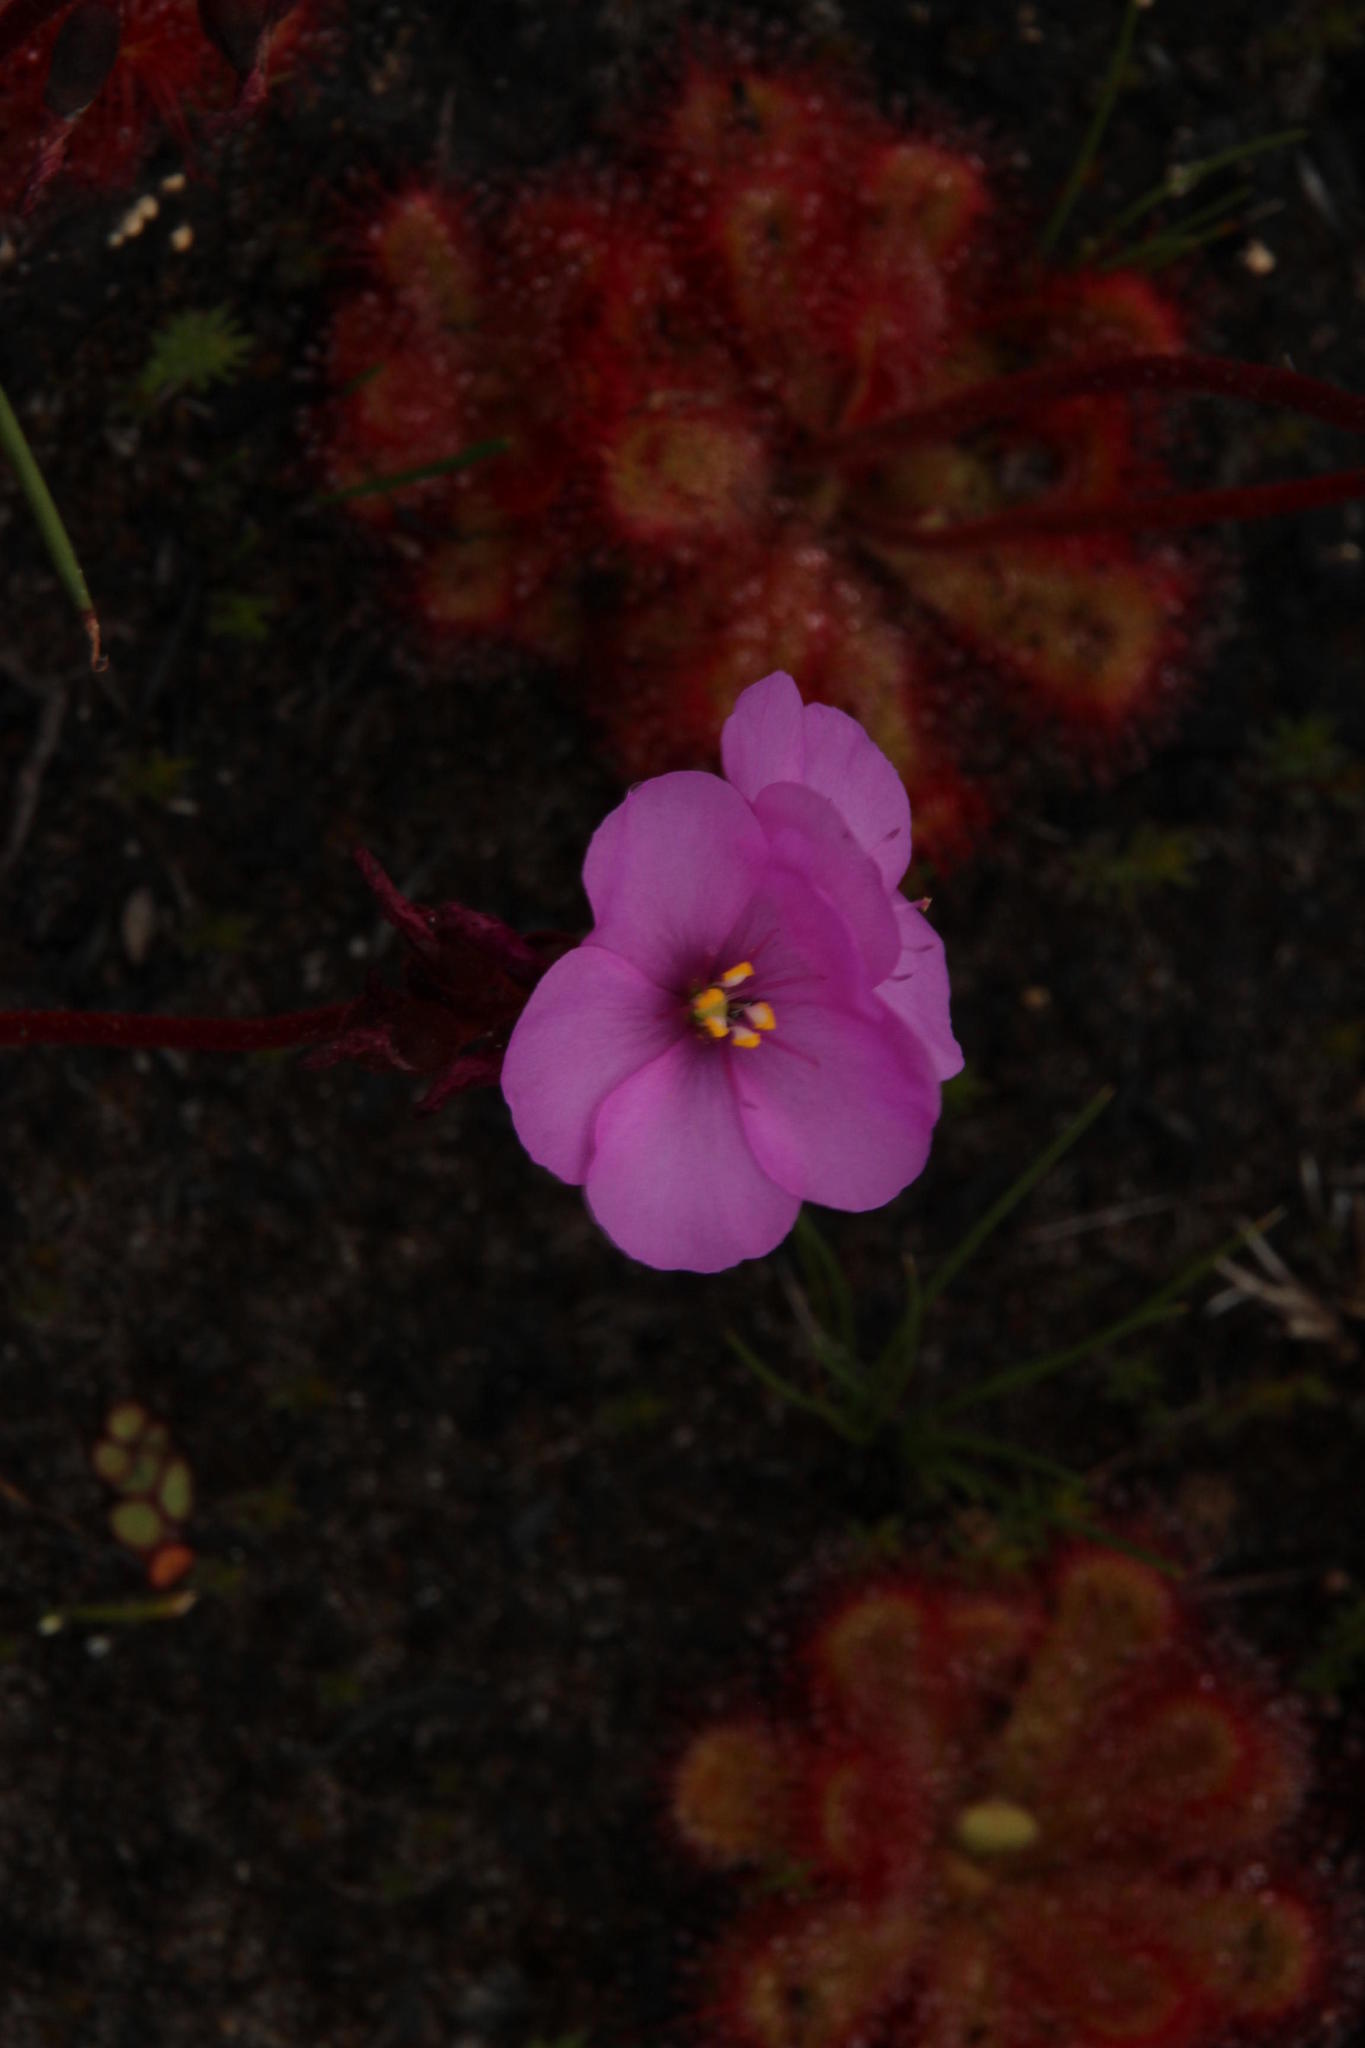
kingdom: Plantae
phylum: Tracheophyta
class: Magnoliopsida
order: Caryophyllales
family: Droseraceae
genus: Drosera
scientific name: Drosera cuneifolia
